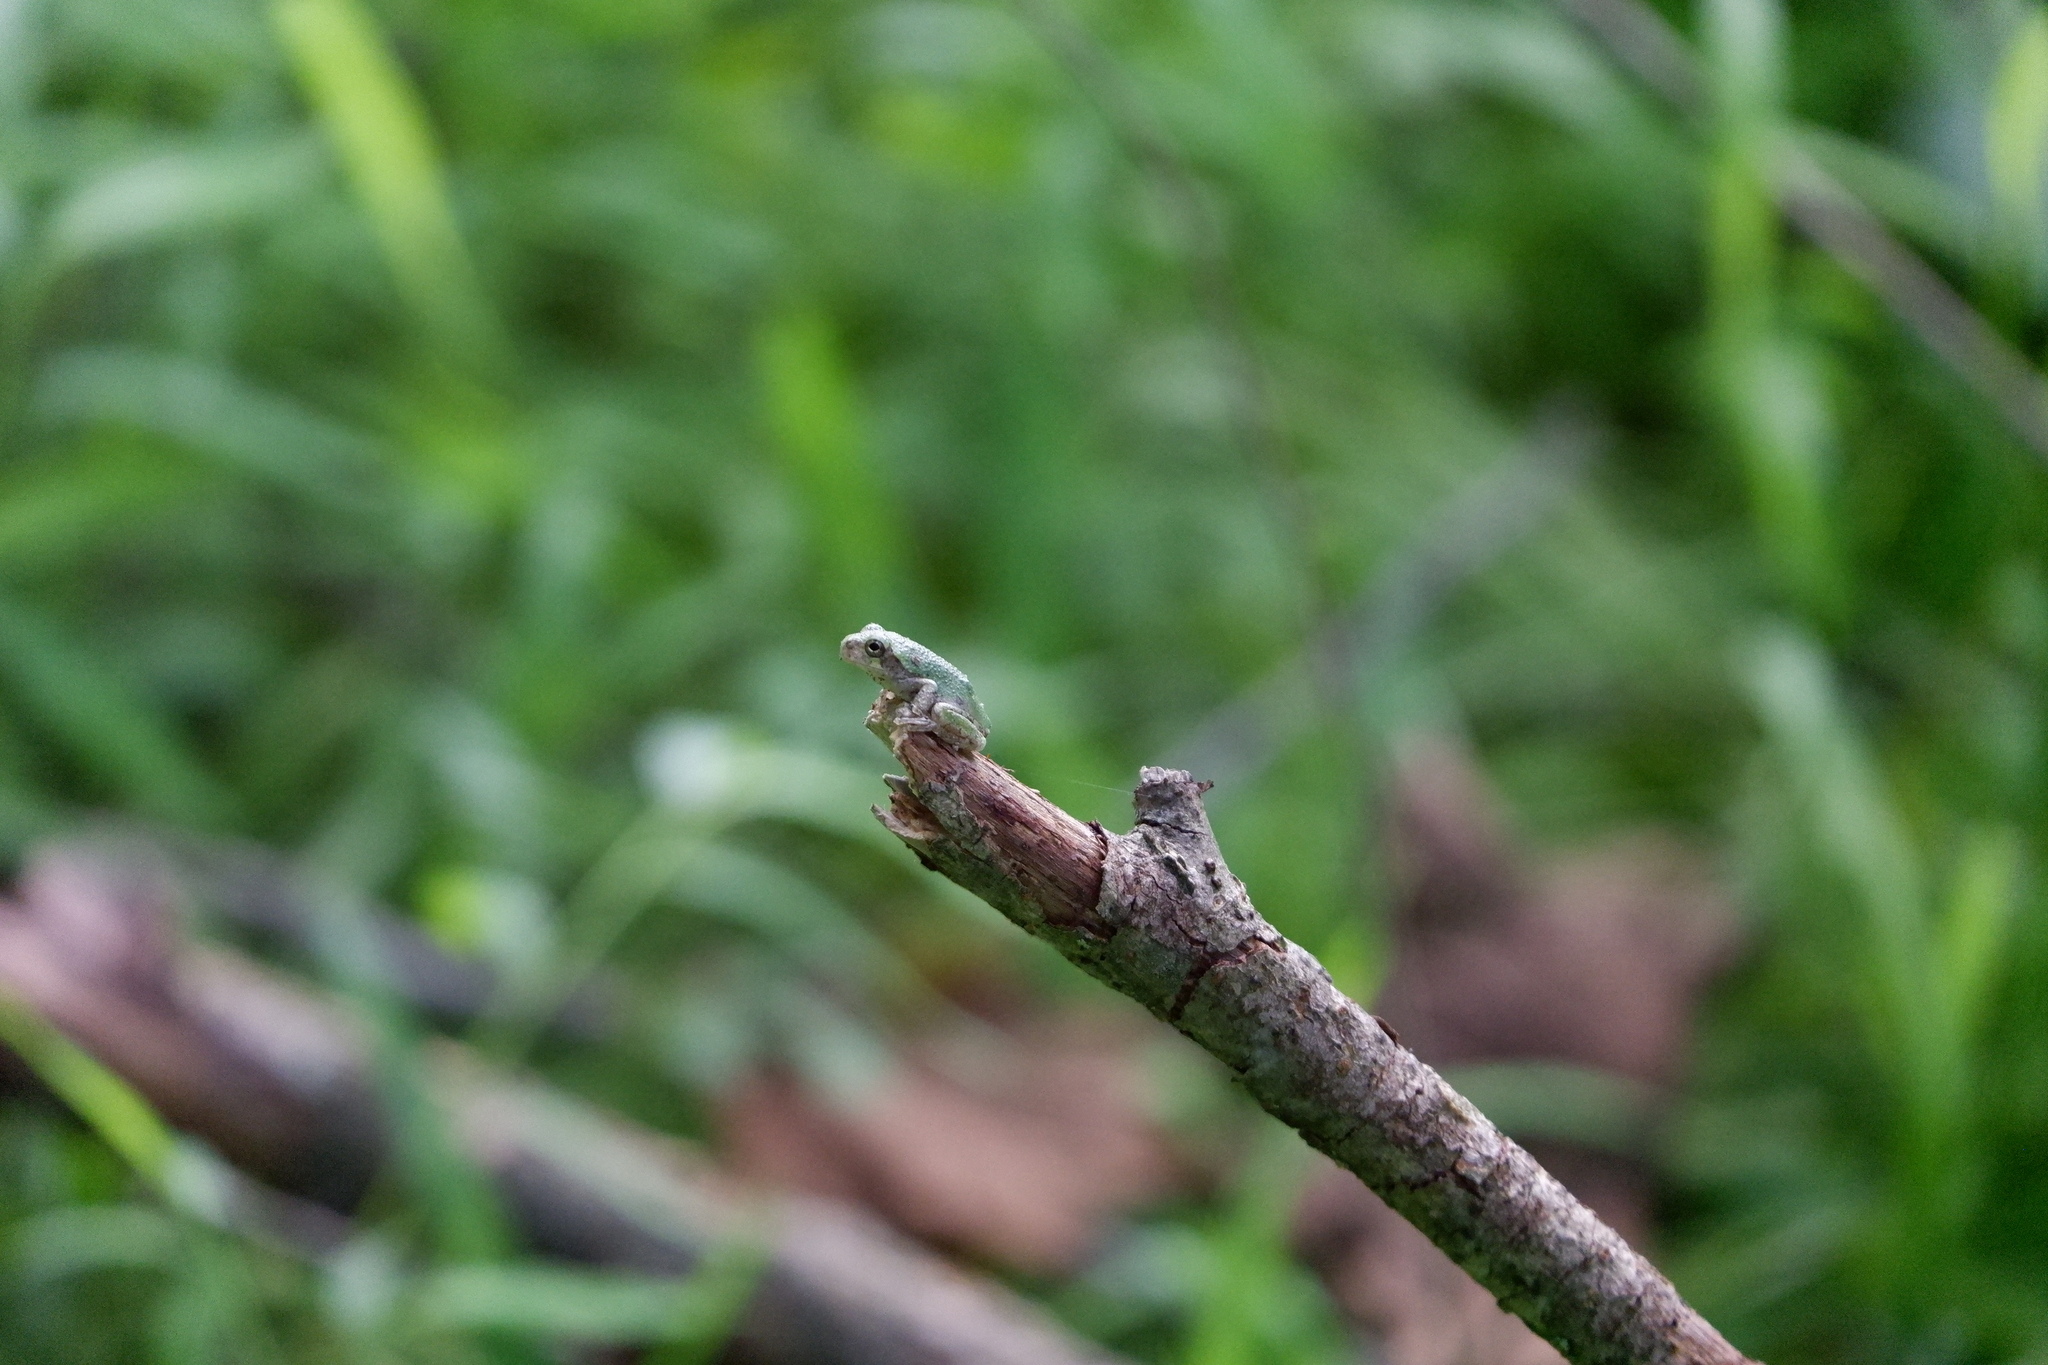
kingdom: Animalia
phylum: Chordata
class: Amphibia
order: Anura
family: Hylidae
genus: Dryophytes
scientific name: Dryophytes versicolor
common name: Gray treefrog
